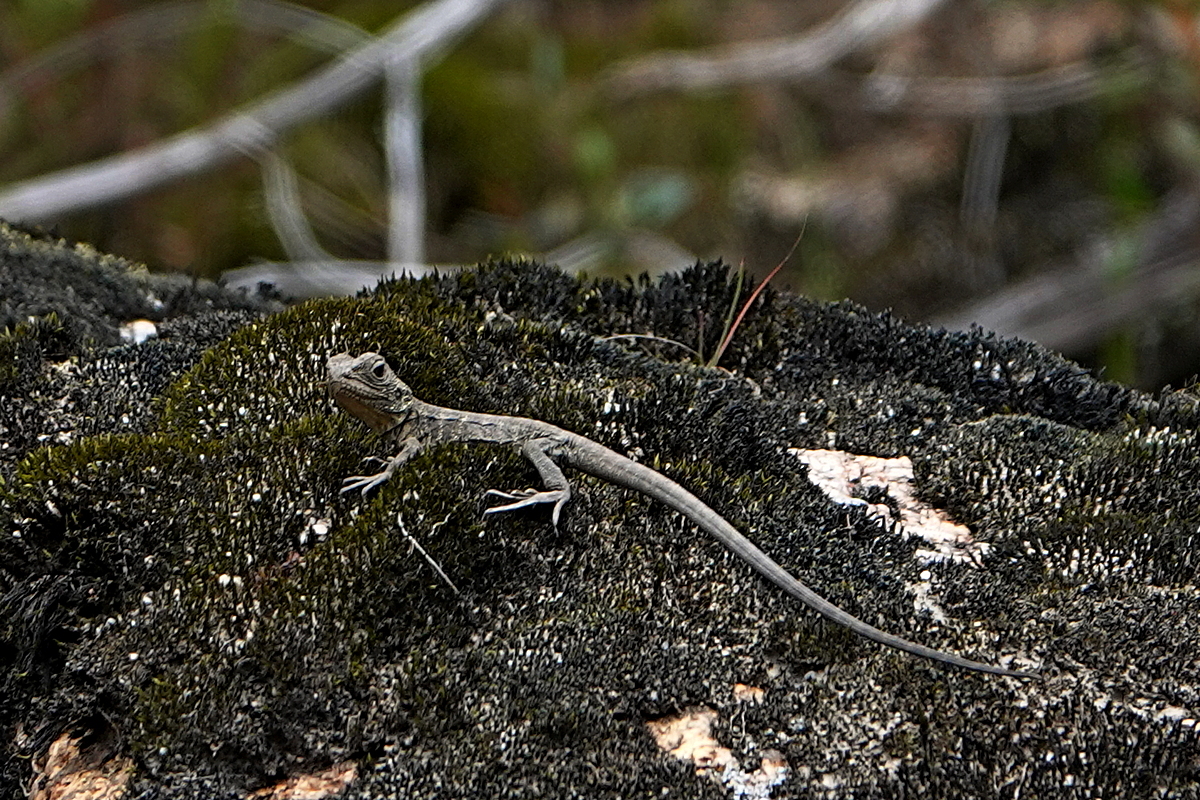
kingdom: Animalia
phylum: Chordata
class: Squamata
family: Agamidae
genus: Intellagama
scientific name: Intellagama lesueurii
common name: Eastern water dragon
